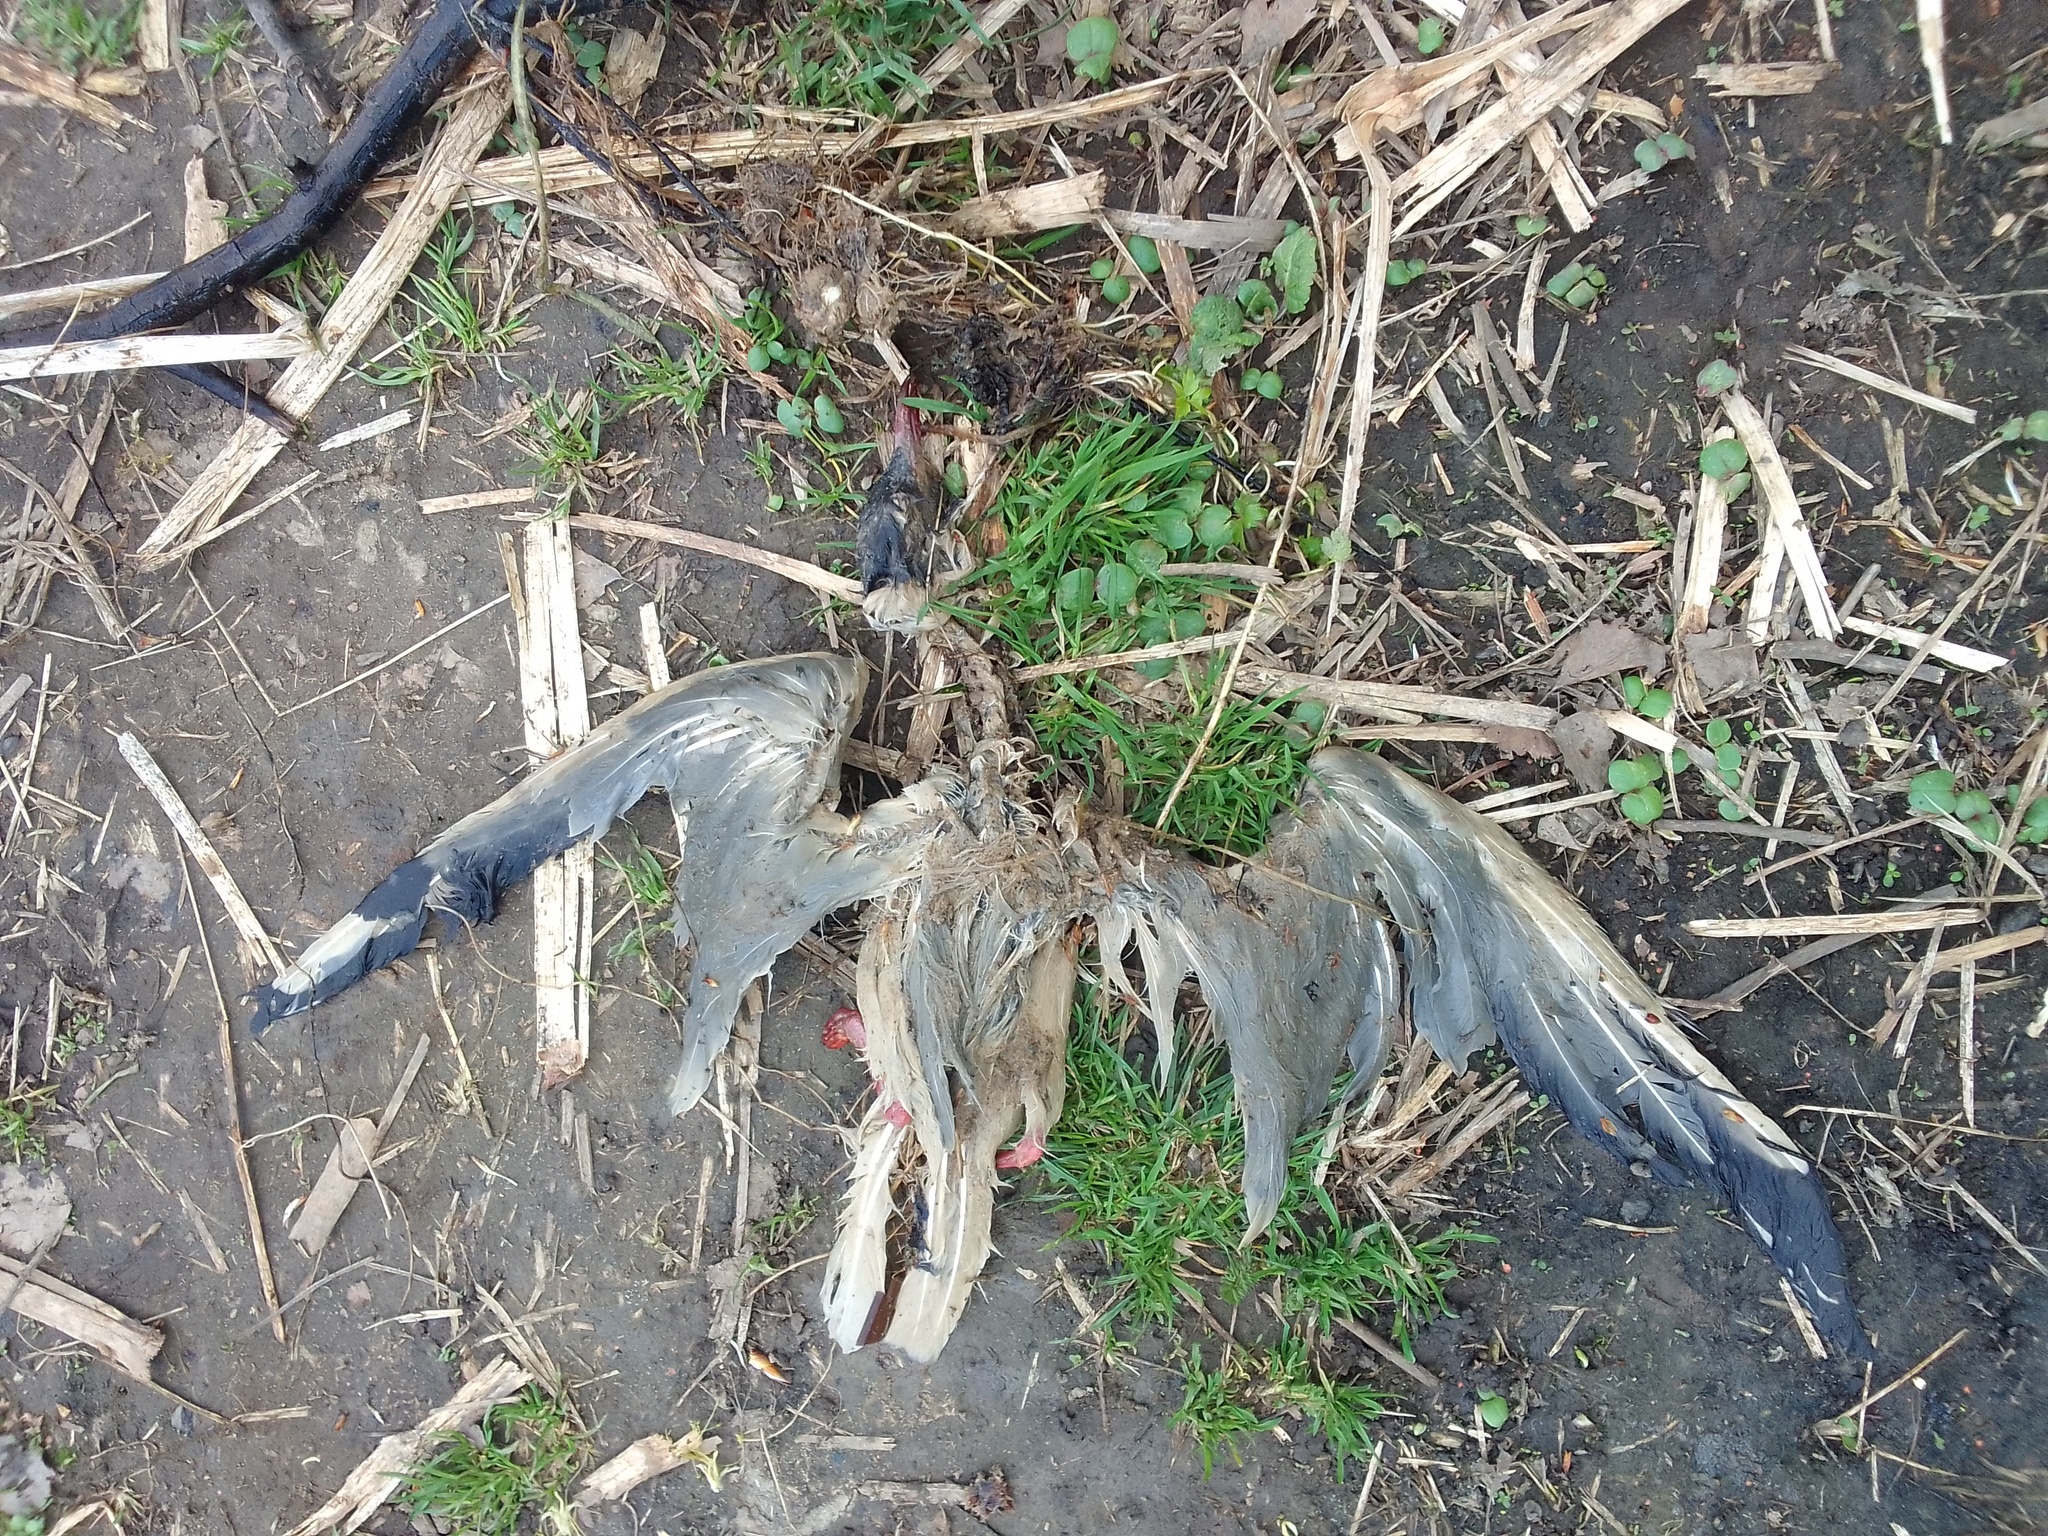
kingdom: Animalia
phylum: Chordata
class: Aves
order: Charadriiformes
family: Laridae
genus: Chroicocephalus
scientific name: Chroicocephalus ridibundus
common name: Black-headed gull
